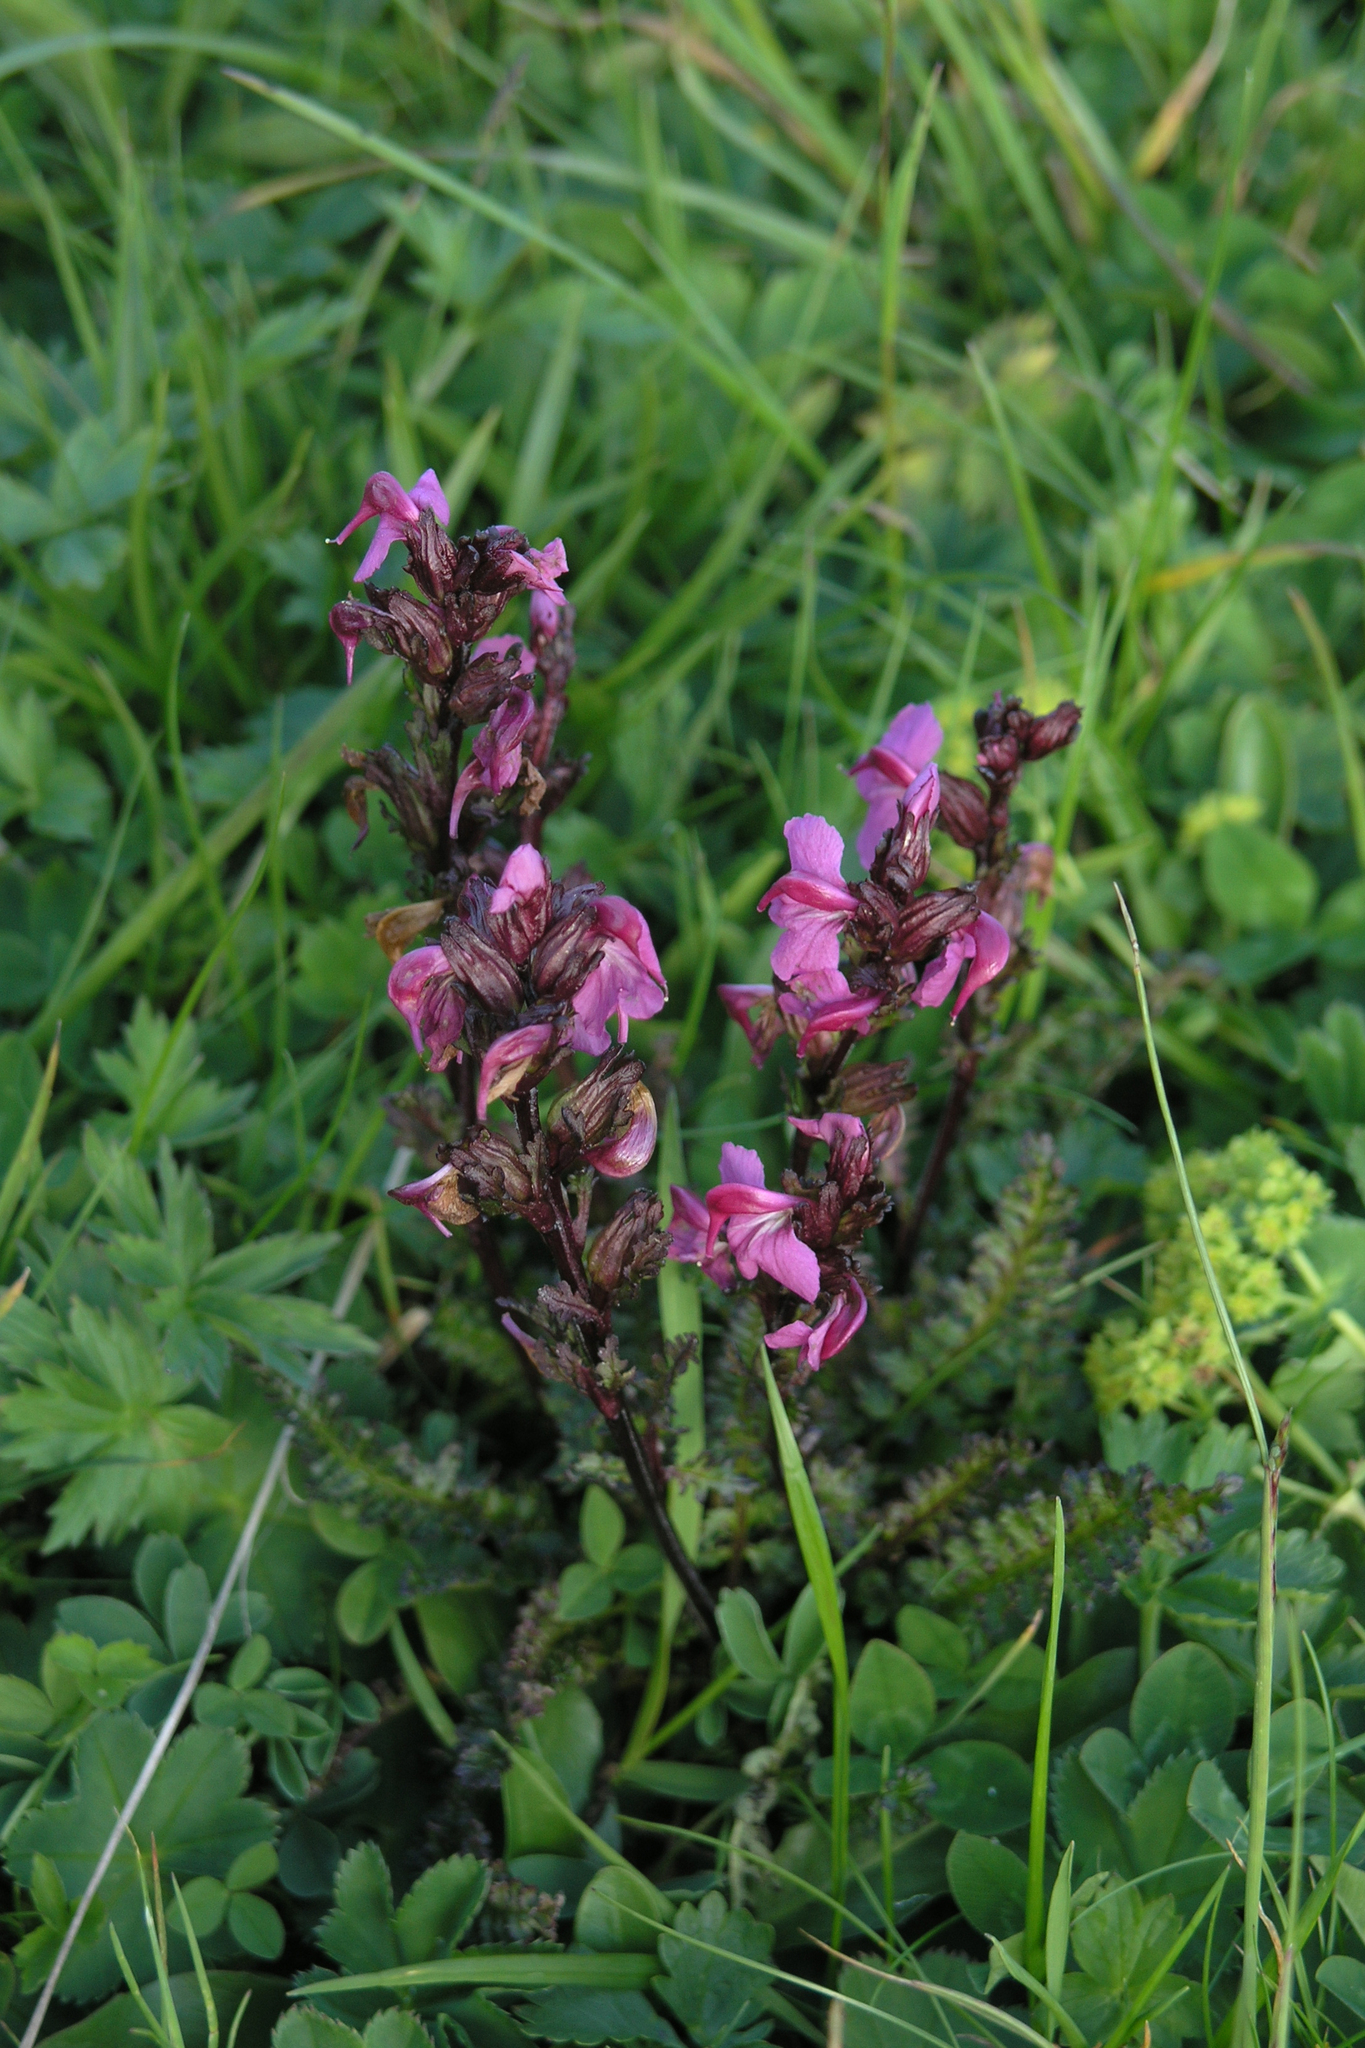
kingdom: Plantae
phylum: Tracheophyta
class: Magnoliopsida
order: Lamiales
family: Orobanchaceae
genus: Pedicularis
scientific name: Pedicularis nordmanniana
